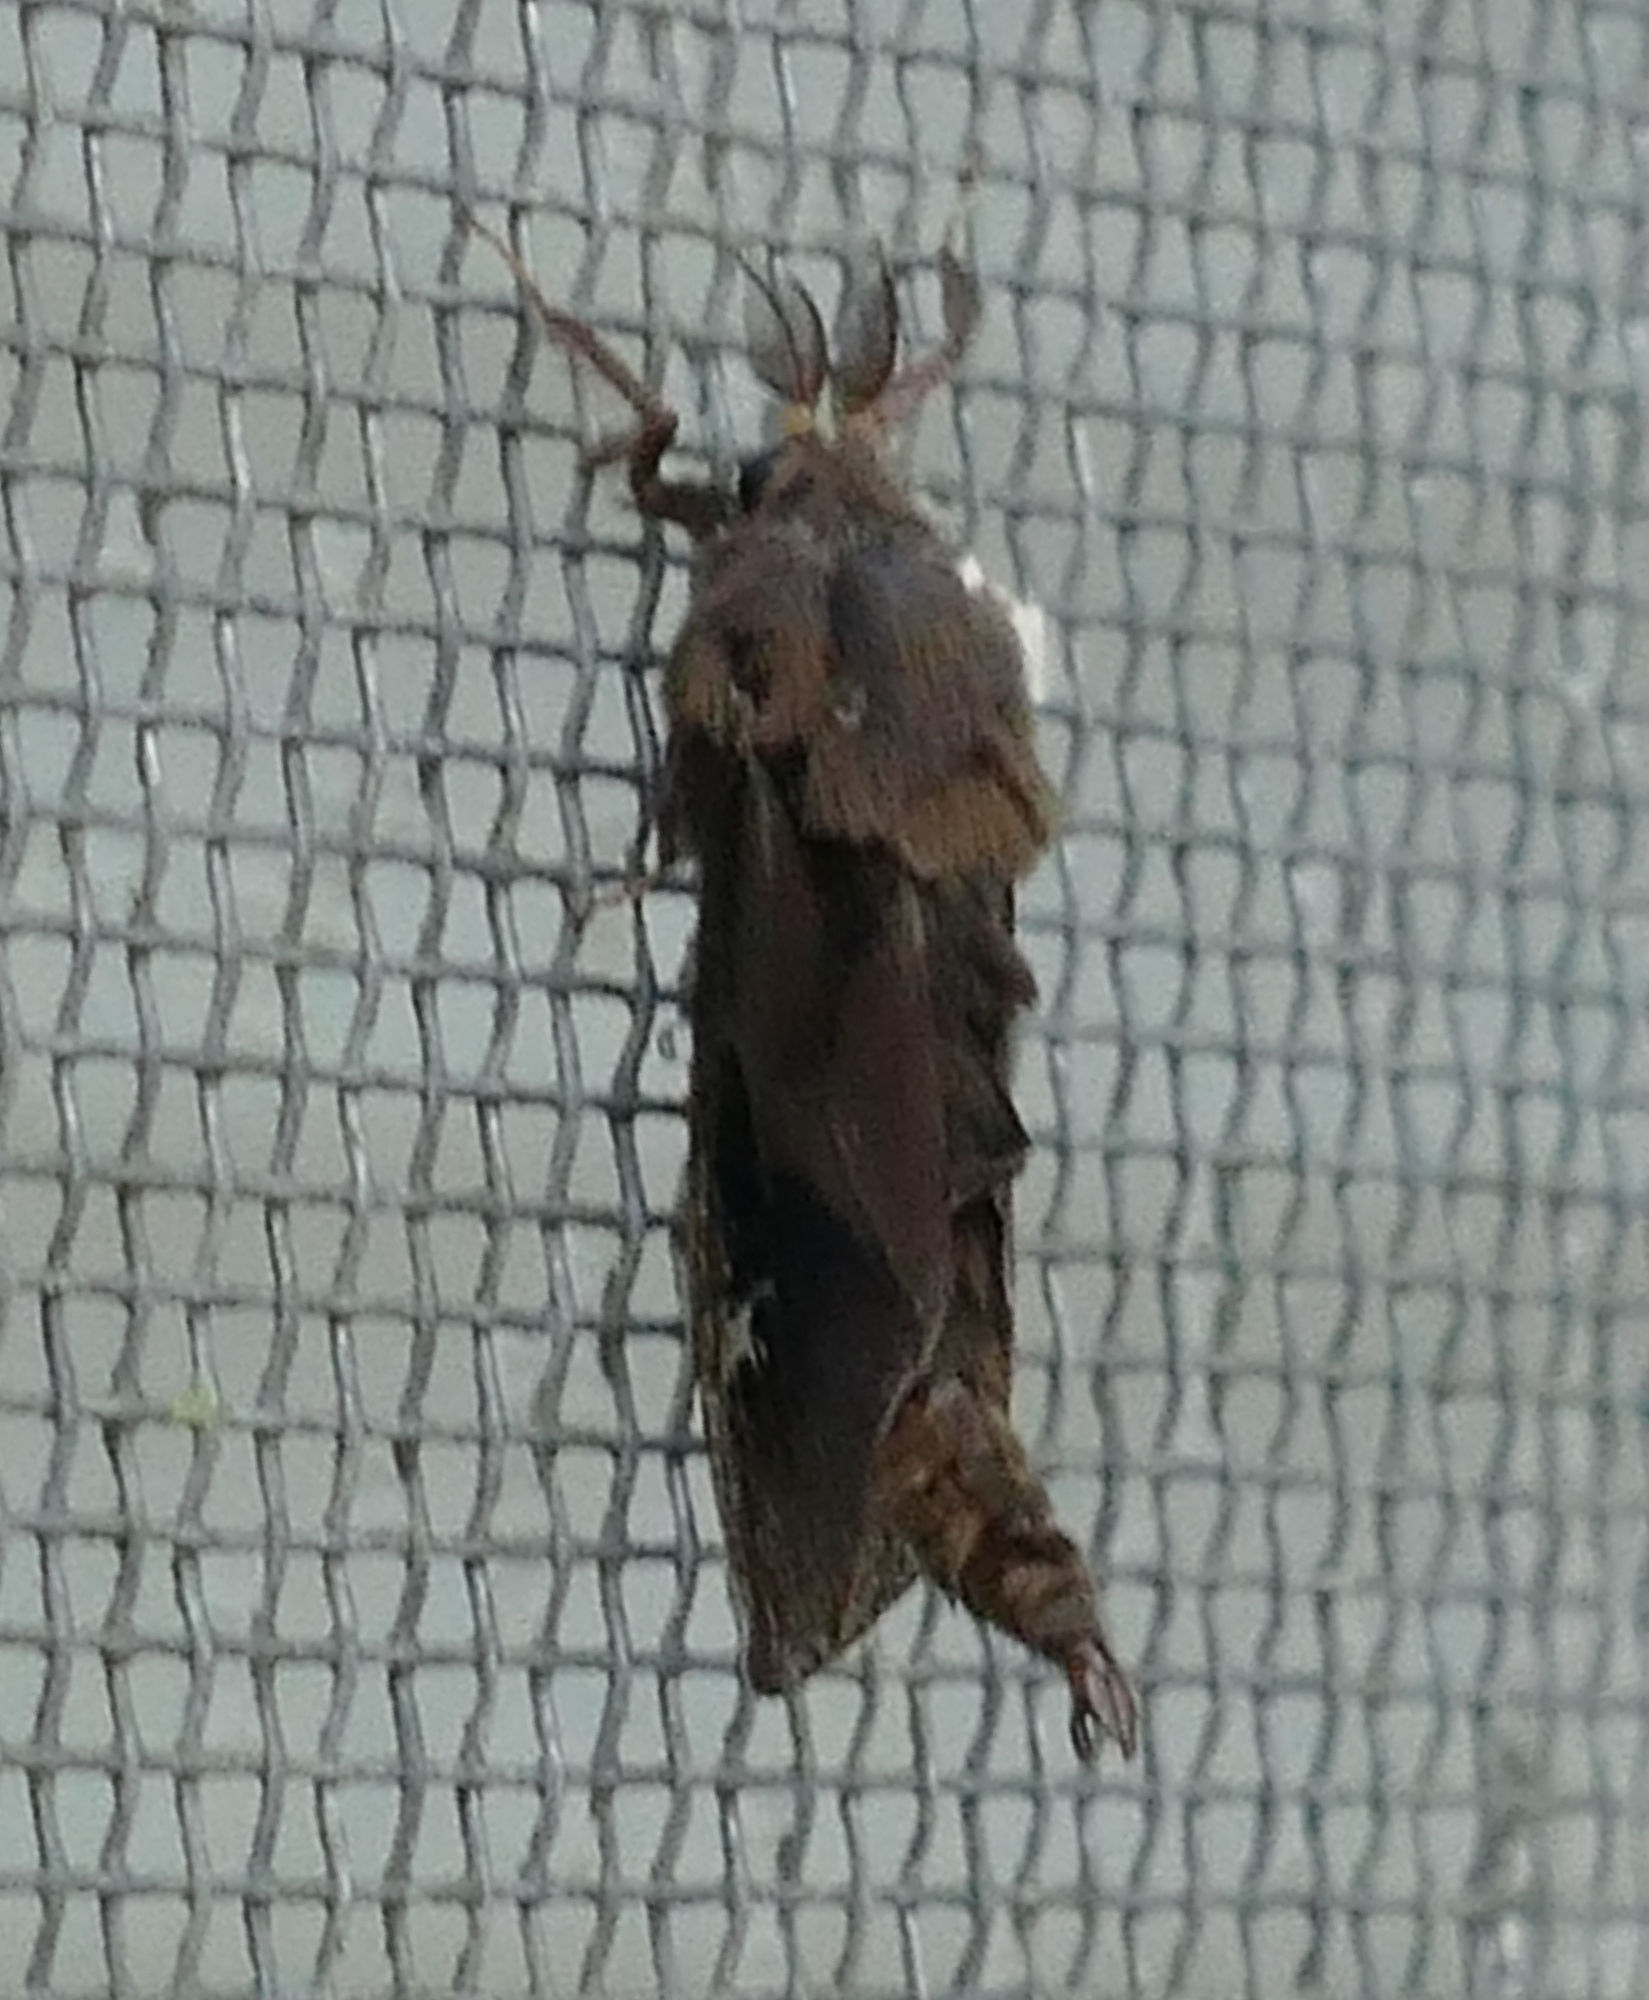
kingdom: Animalia
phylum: Arthropoda
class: Insecta
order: Lepidoptera
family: Psychidae
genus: Oiketicus
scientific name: Oiketicus
